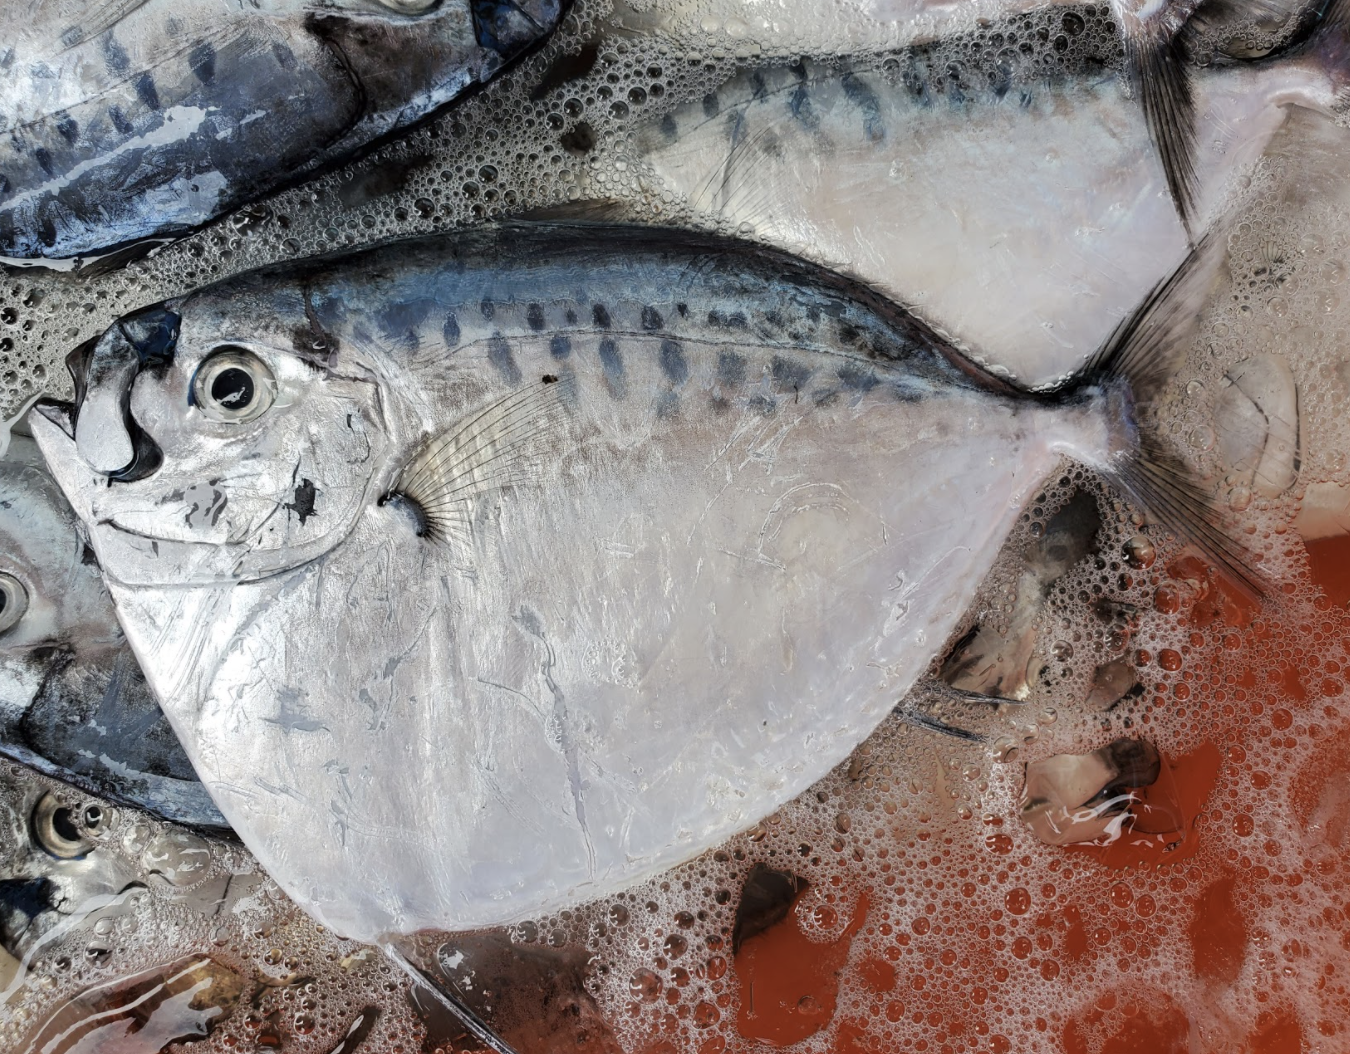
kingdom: Animalia
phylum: Chordata
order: Perciformes
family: Menidae
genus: Mene
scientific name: Mene maculata
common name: Moonfish
